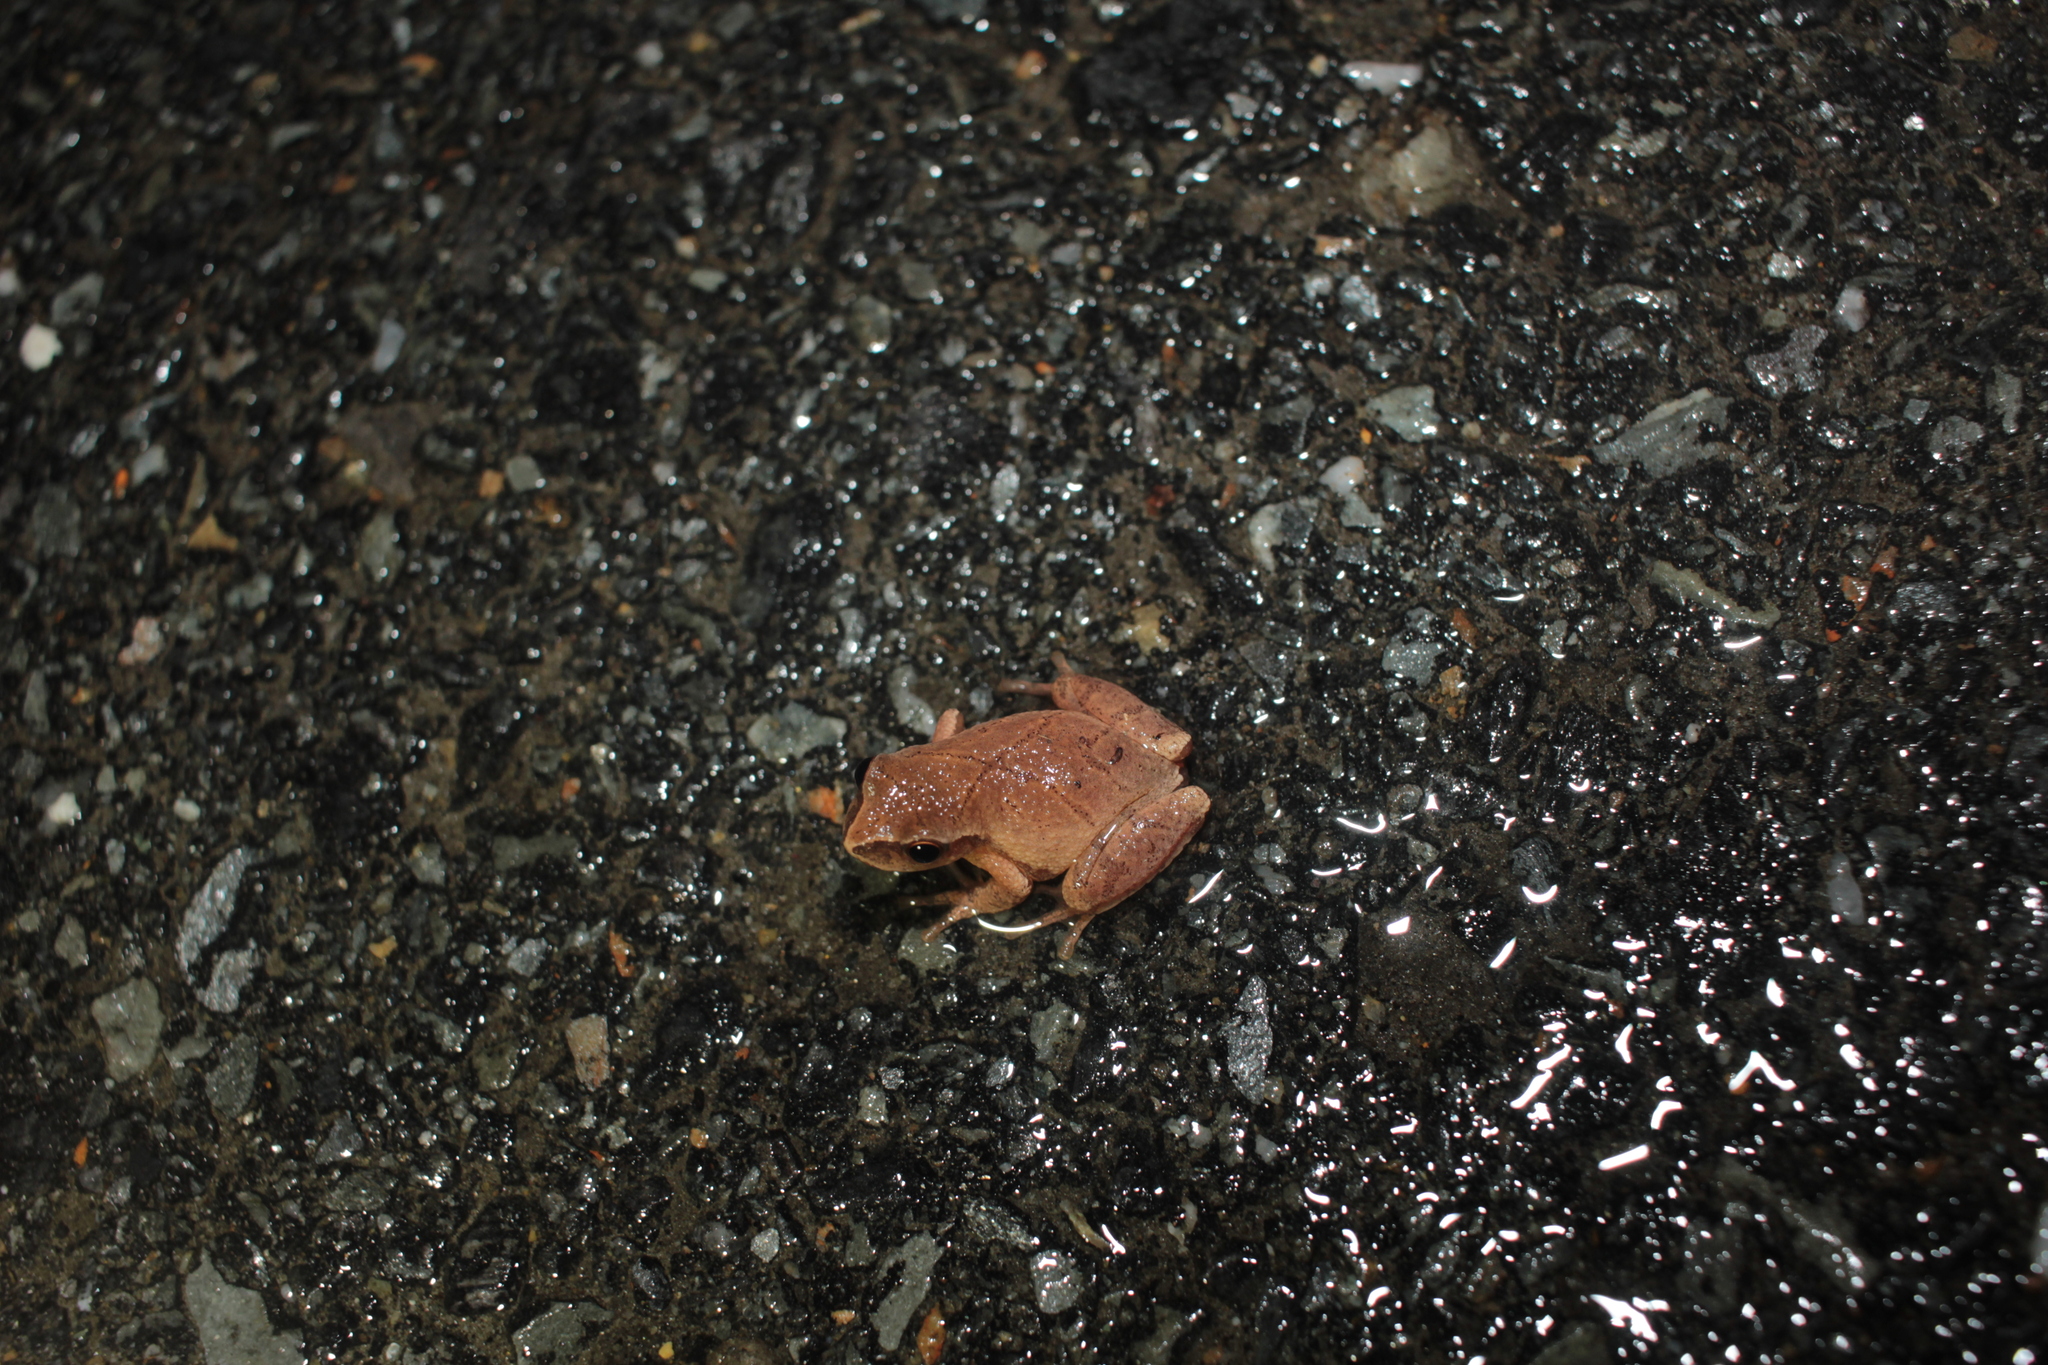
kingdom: Animalia
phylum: Chordata
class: Amphibia
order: Anura
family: Hylidae
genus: Pseudacris
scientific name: Pseudacris crucifer
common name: Spring peeper
